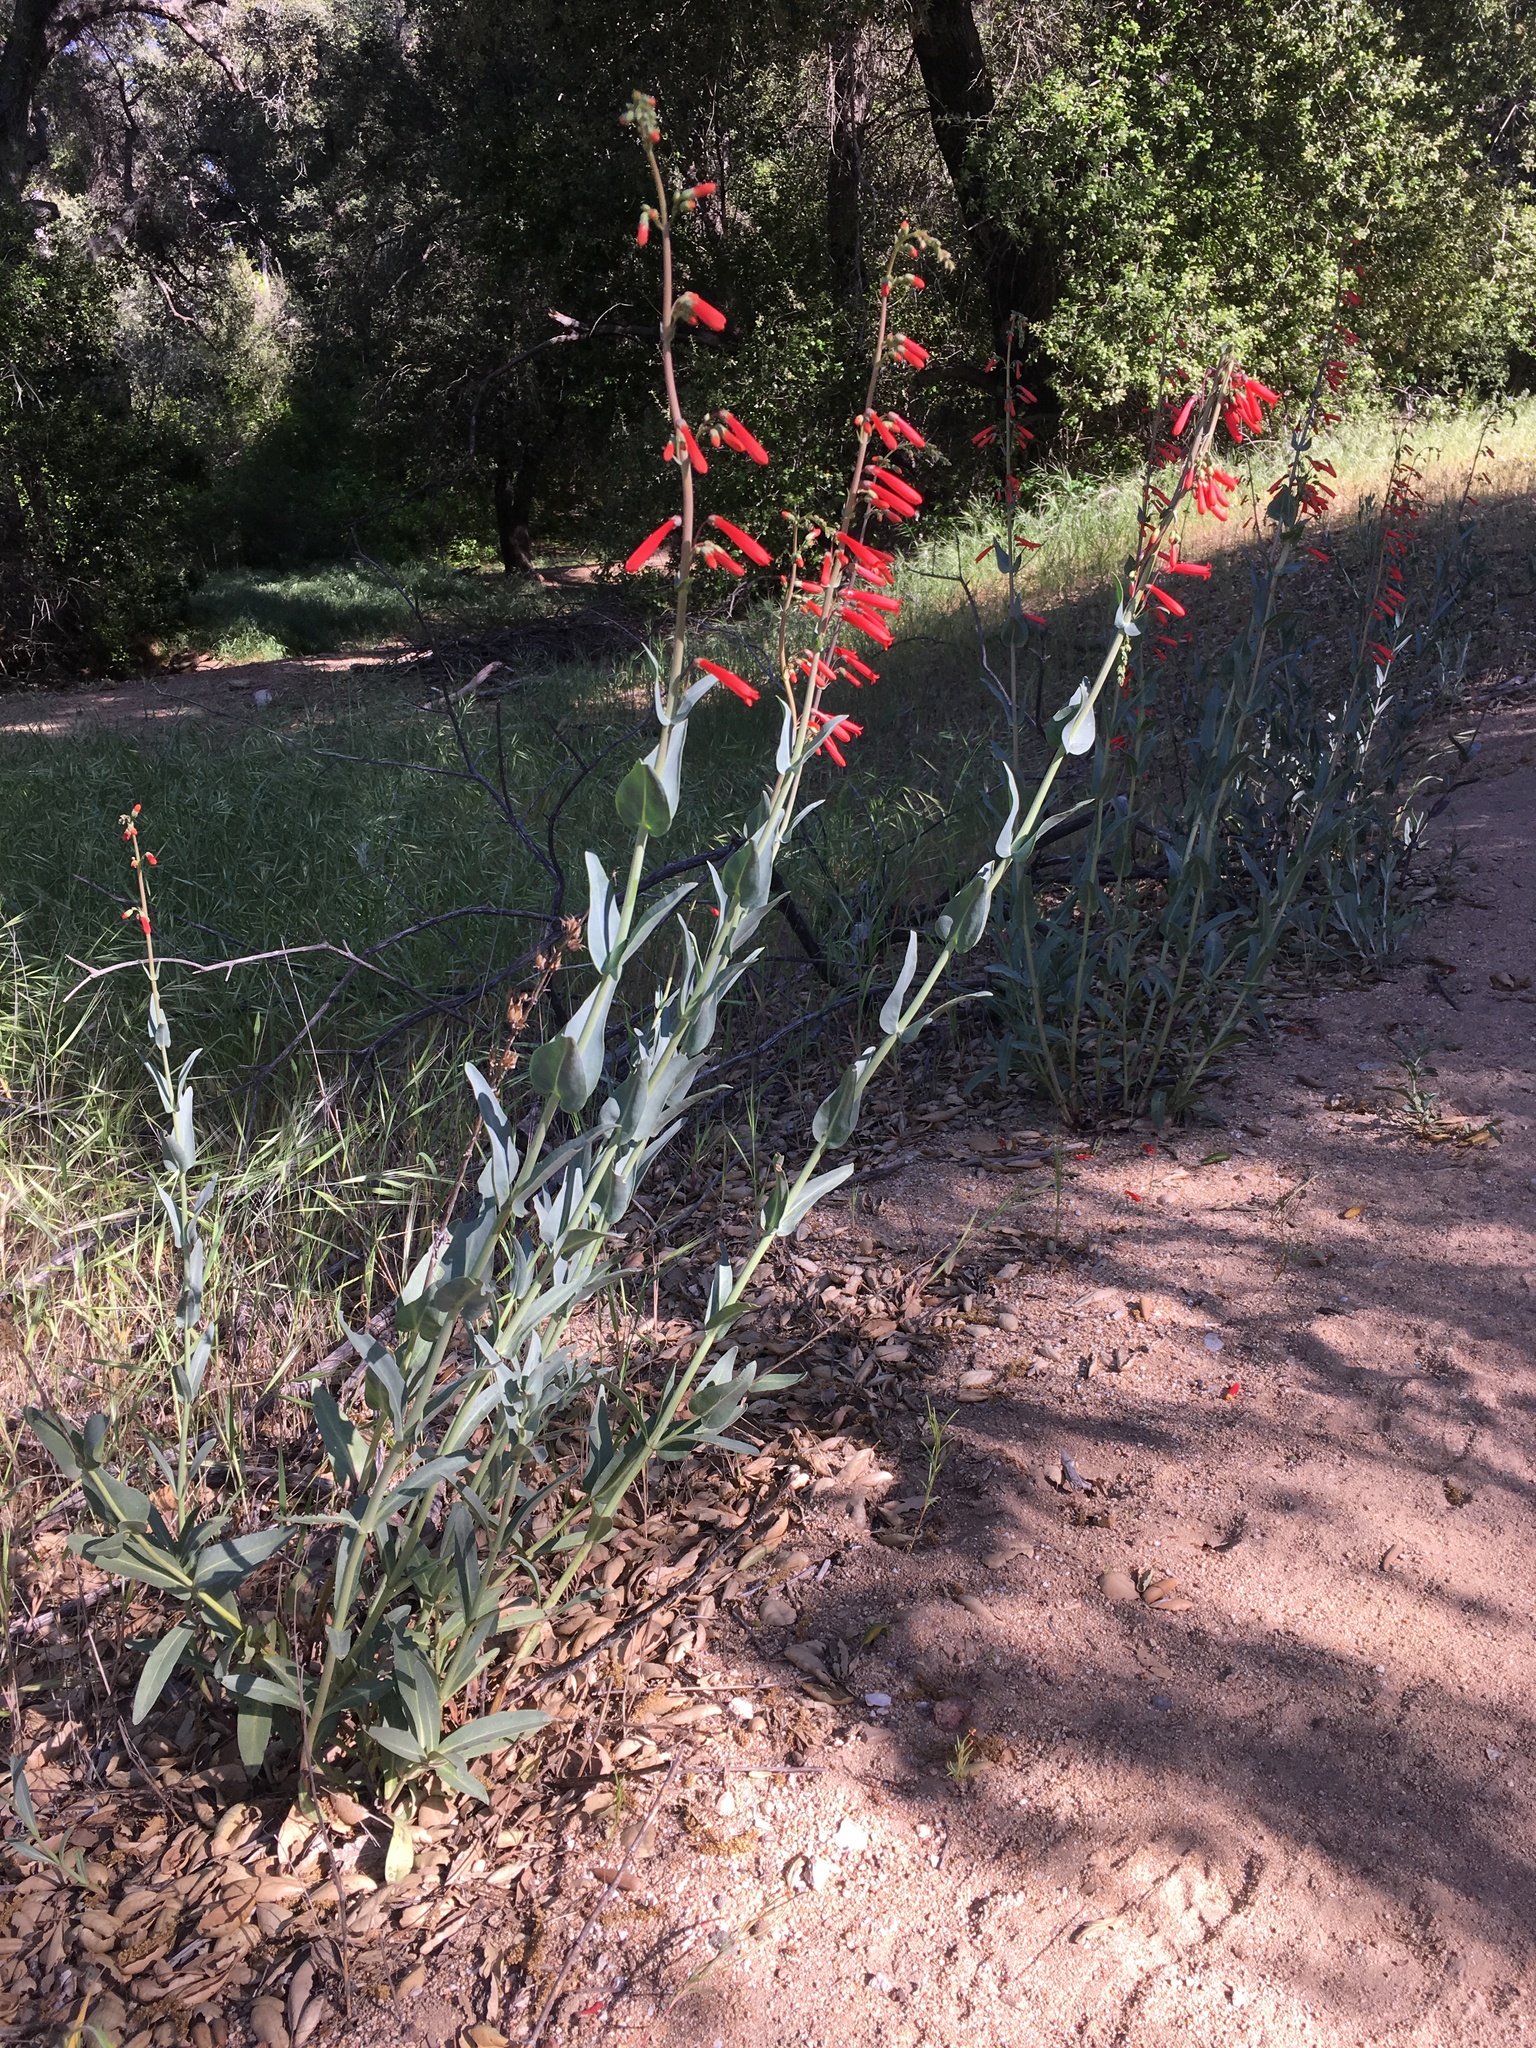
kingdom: Plantae
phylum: Tracheophyta
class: Magnoliopsida
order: Lamiales
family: Plantaginaceae
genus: Penstemon
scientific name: Penstemon centranthifolius
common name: Scarlet bugler
